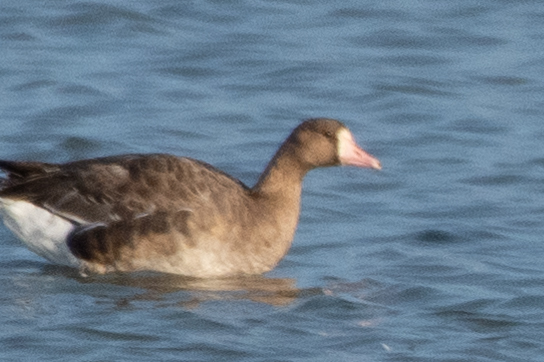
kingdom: Animalia
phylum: Chordata
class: Aves
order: Anseriformes
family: Anatidae
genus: Anser
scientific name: Anser albifrons
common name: Greater white-fronted goose
